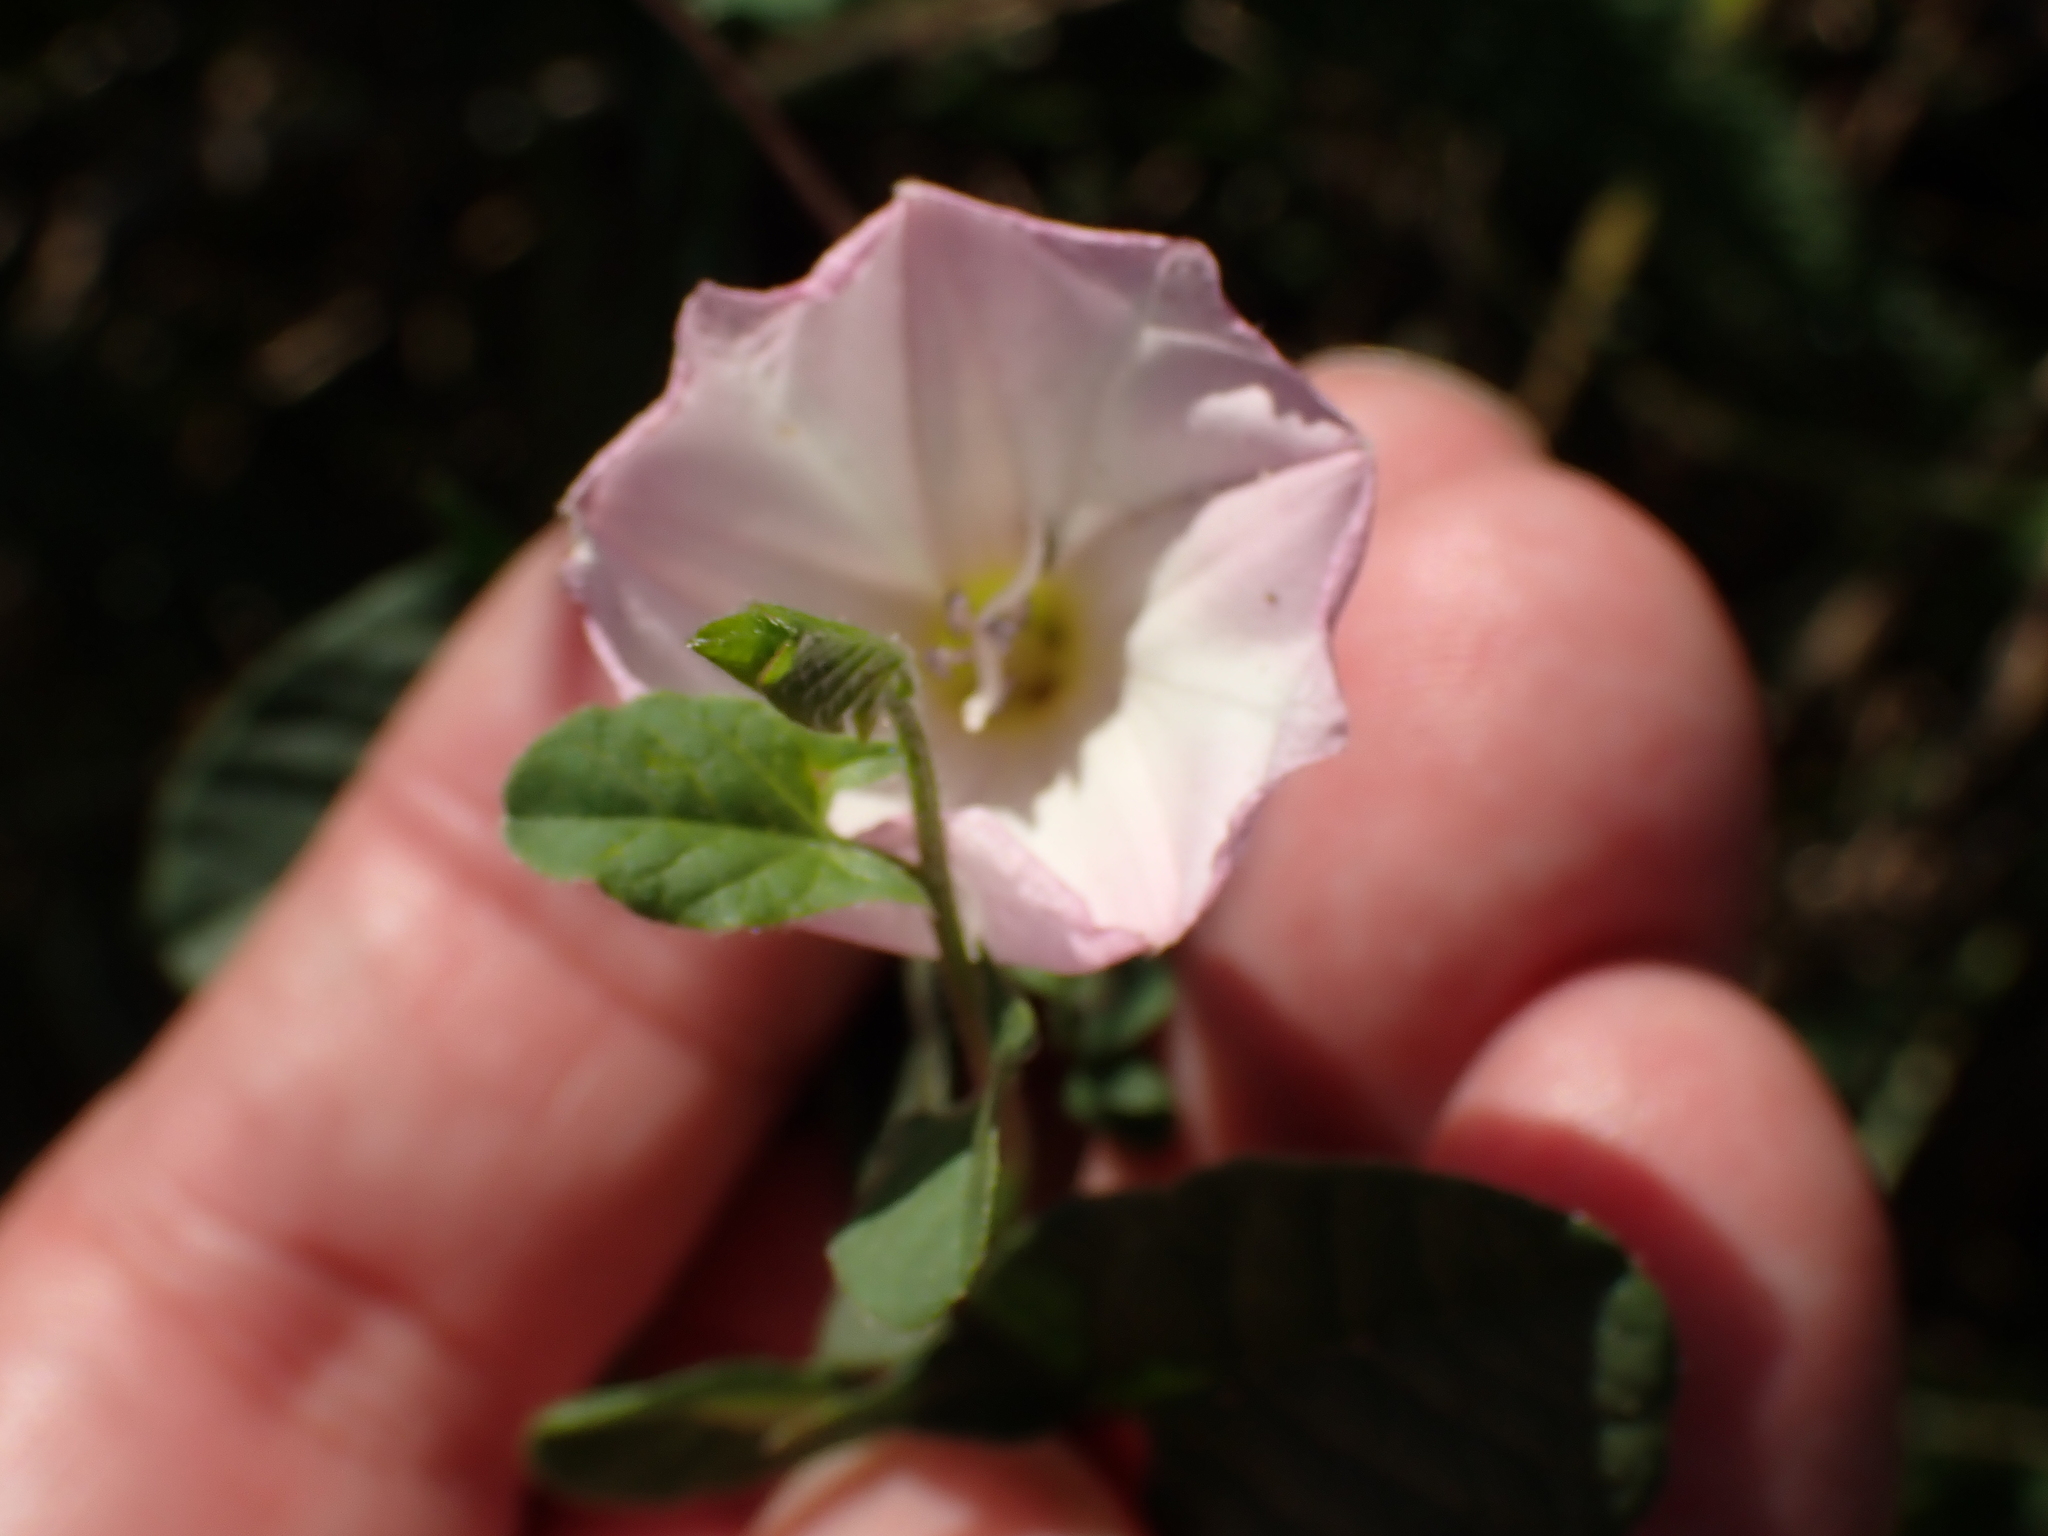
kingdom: Plantae
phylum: Tracheophyta
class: Magnoliopsida
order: Solanales
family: Convolvulaceae
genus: Convolvulus
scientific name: Convolvulus arvensis
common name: Field bindweed
